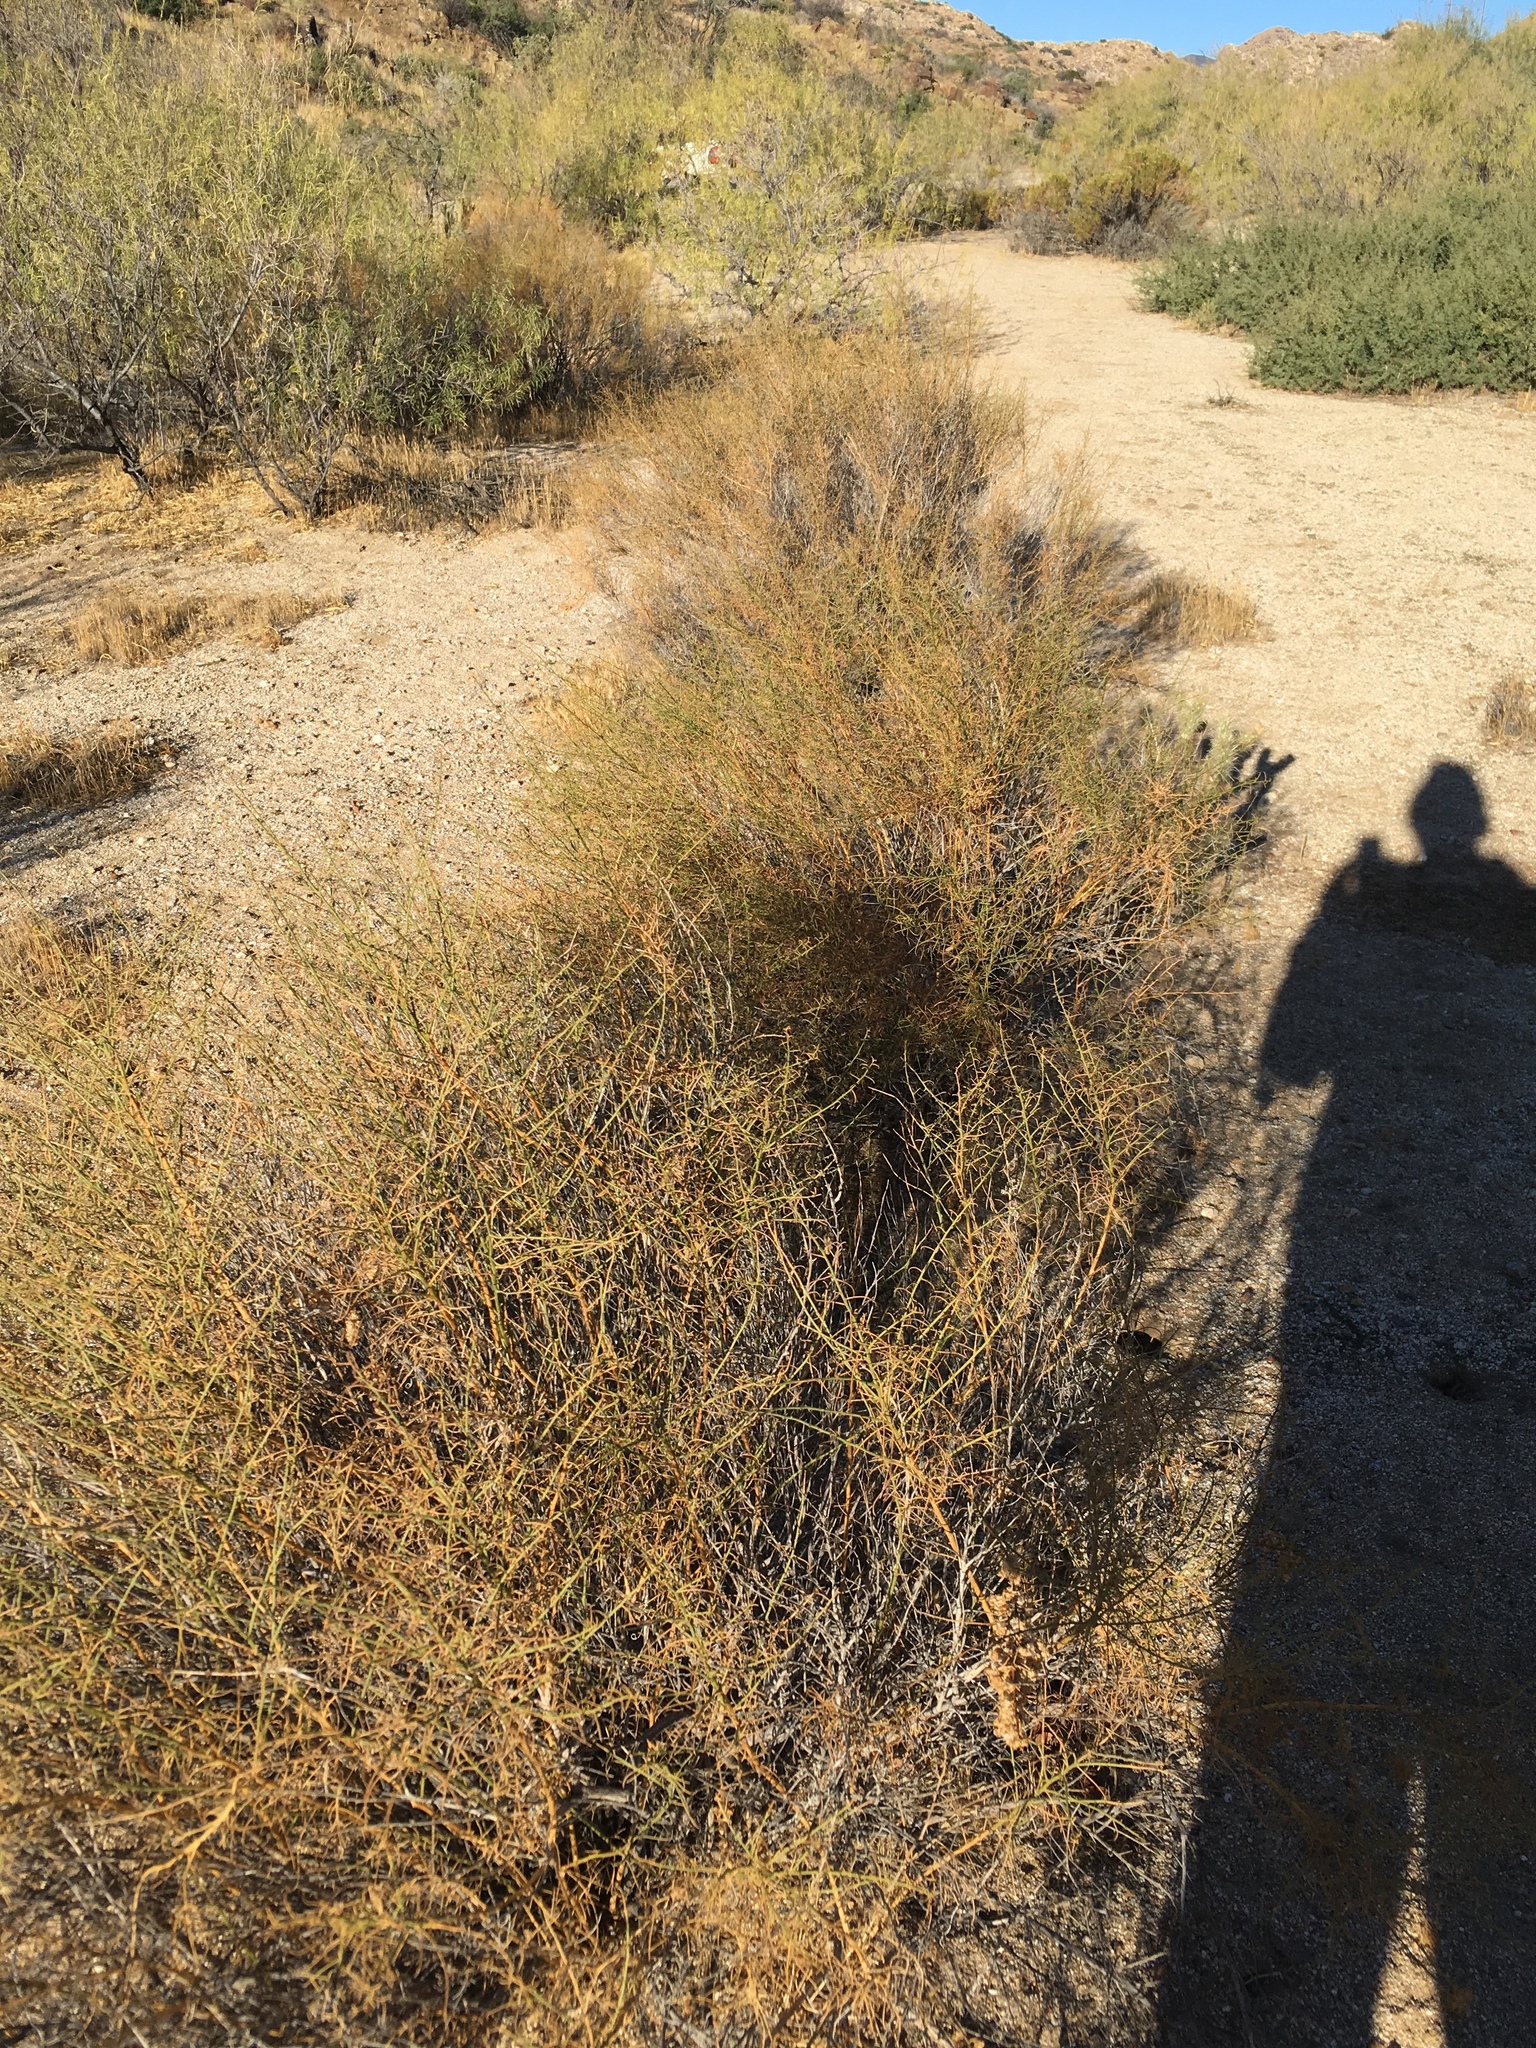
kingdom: Plantae
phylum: Tracheophyta
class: Magnoliopsida
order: Asterales
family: Asteraceae
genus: Ambrosia
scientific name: Ambrosia salsola
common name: Burrobrush
